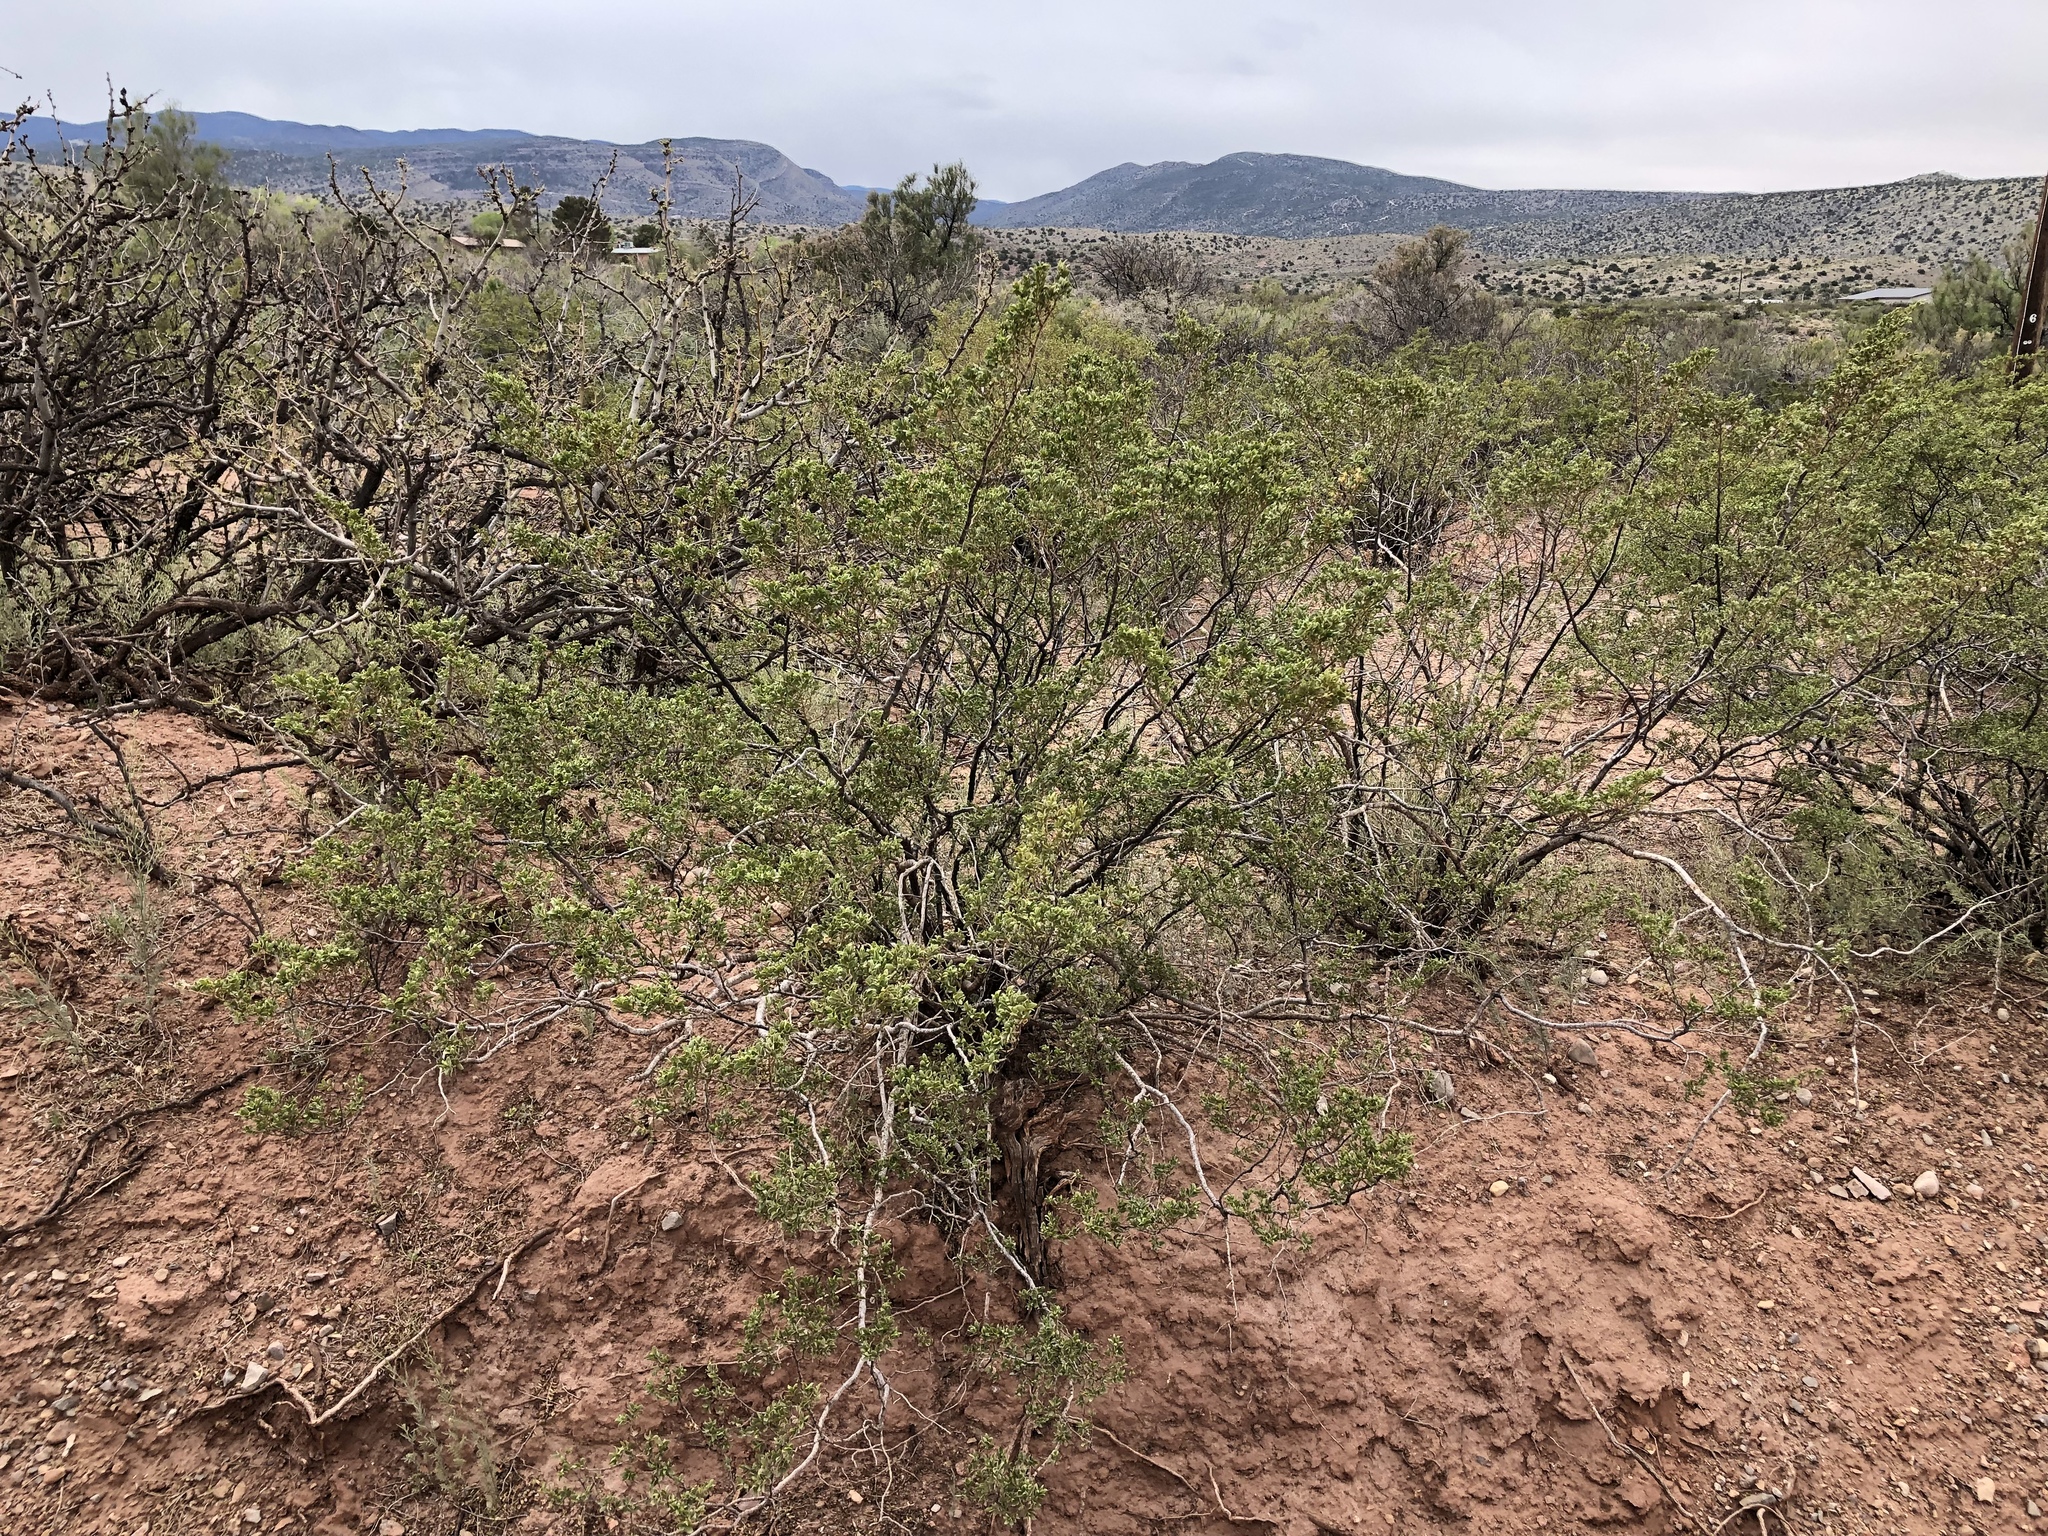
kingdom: Plantae
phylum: Tracheophyta
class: Magnoliopsida
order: Zygophyllales
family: Zygophyllaceae
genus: Larrea
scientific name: Larrea tridentata
